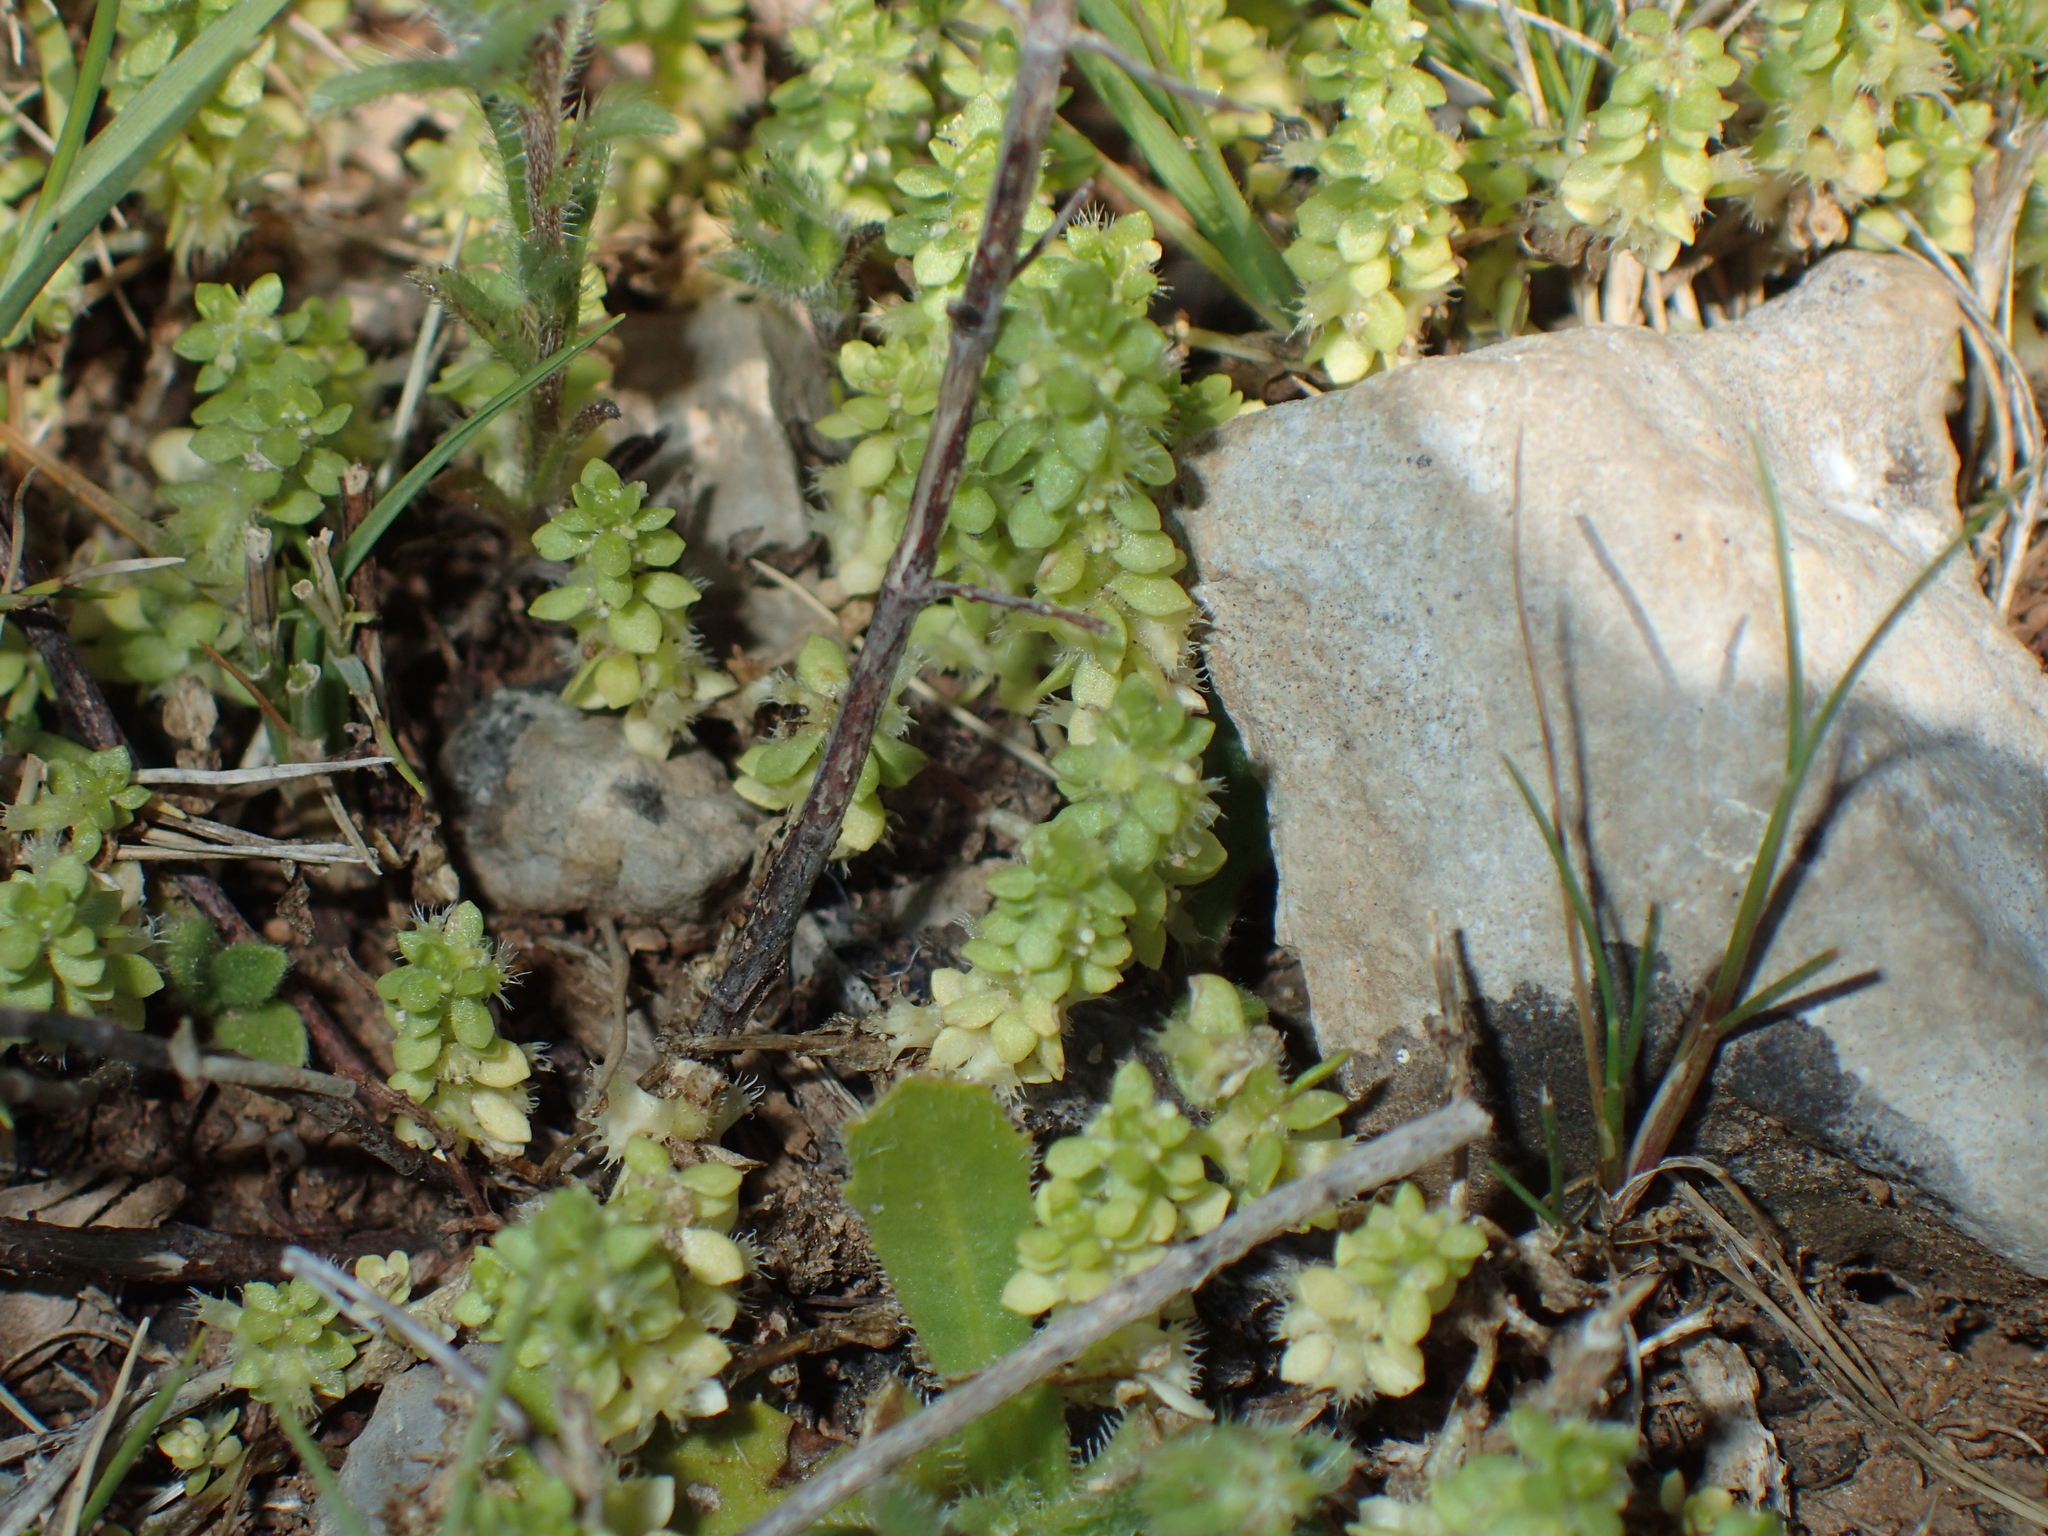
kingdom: Plantae
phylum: Tracheophyta
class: Magnoliopsida
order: Gentianales
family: Rubiaceae
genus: Valantia
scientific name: Valantia muralis
